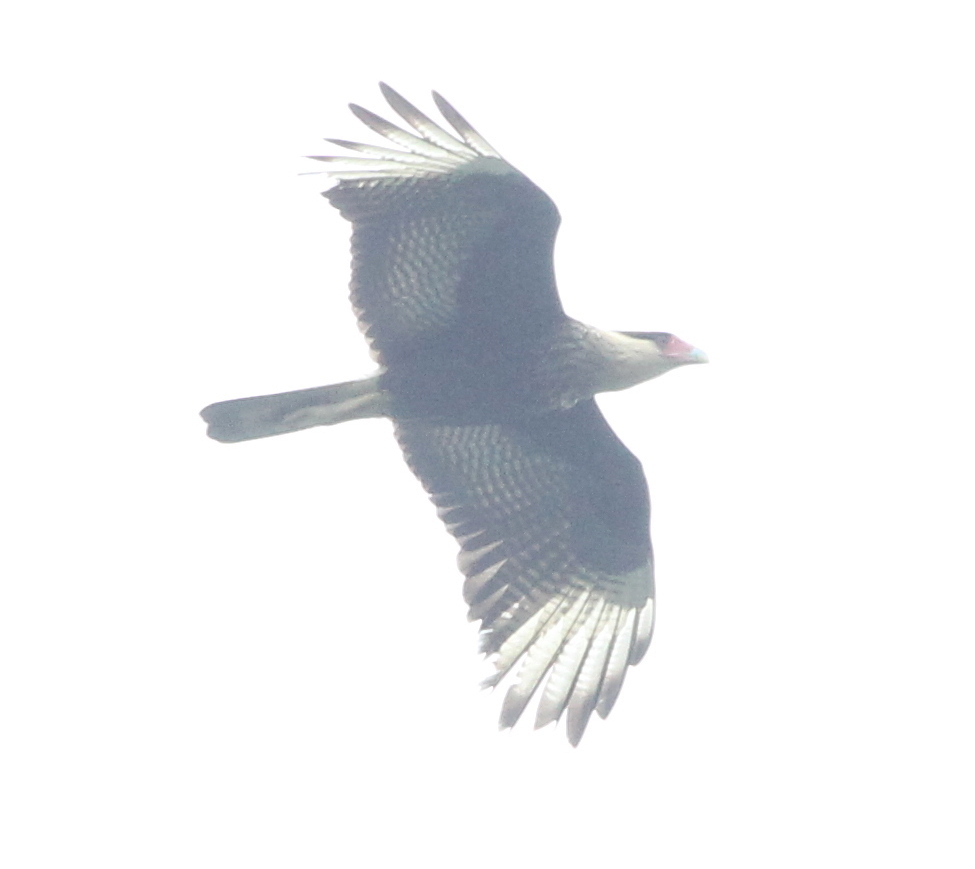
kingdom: Animalia
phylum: Chordata
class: Aves
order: Falconiformes
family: Falconidae
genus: Caracara
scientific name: Caracara plancus
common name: Southern caracara
